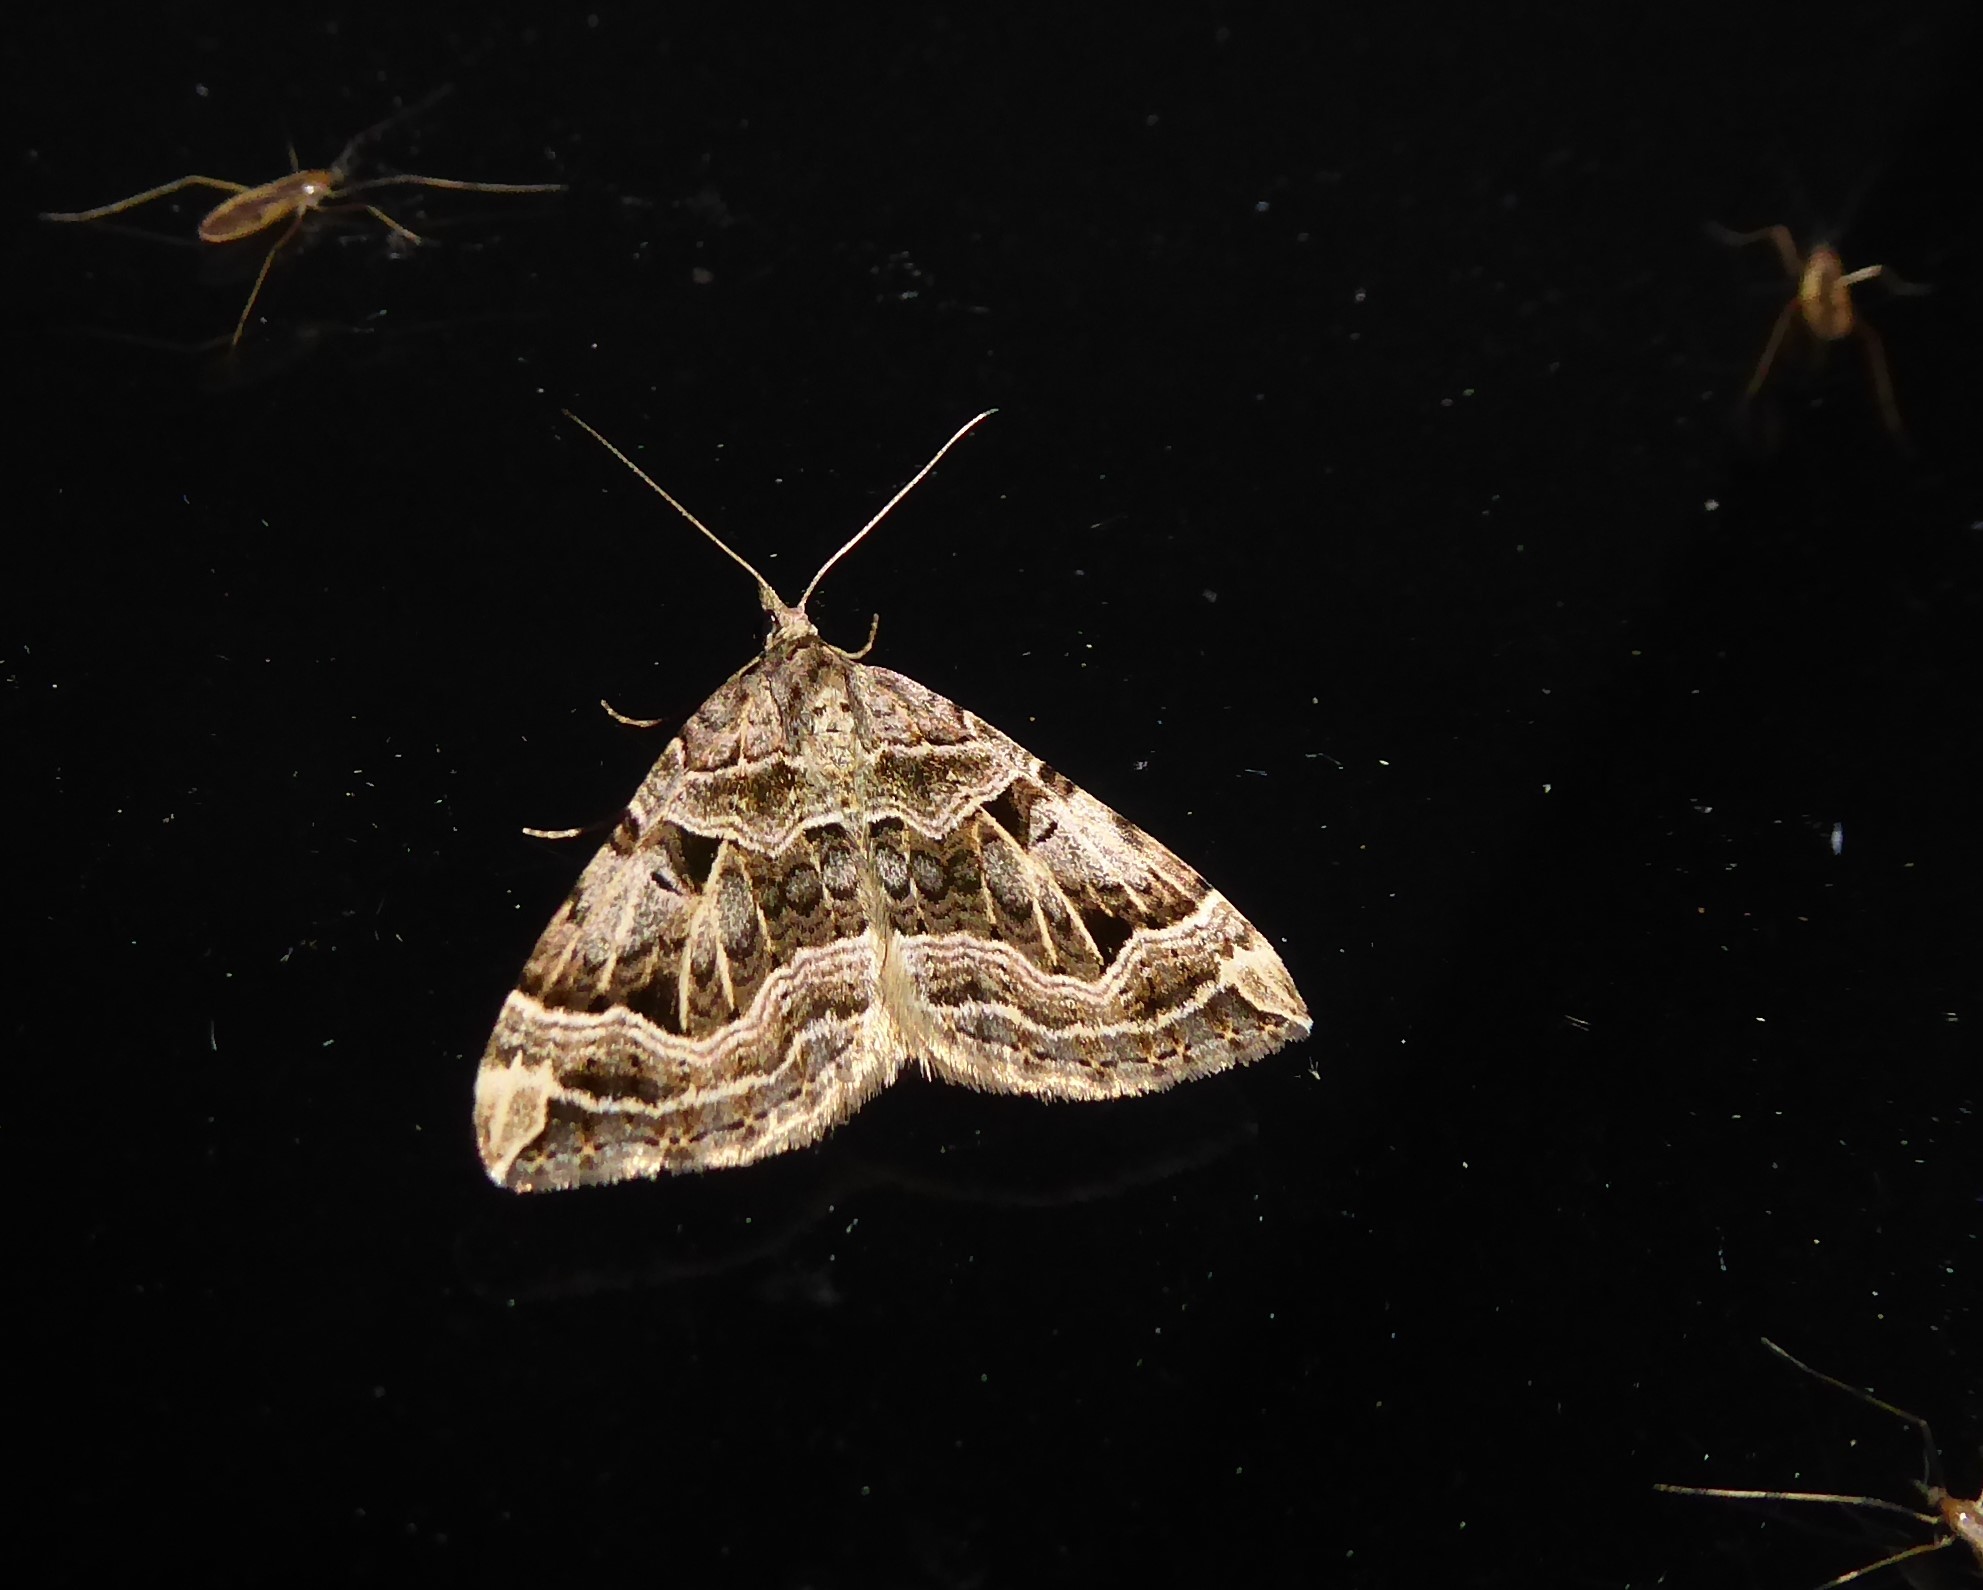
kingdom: Animalia
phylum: Arthropoda
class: Insecta
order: Lepidoptera
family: Geometridae
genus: Xanthorhoe
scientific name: Xanthorhoe semifissata
